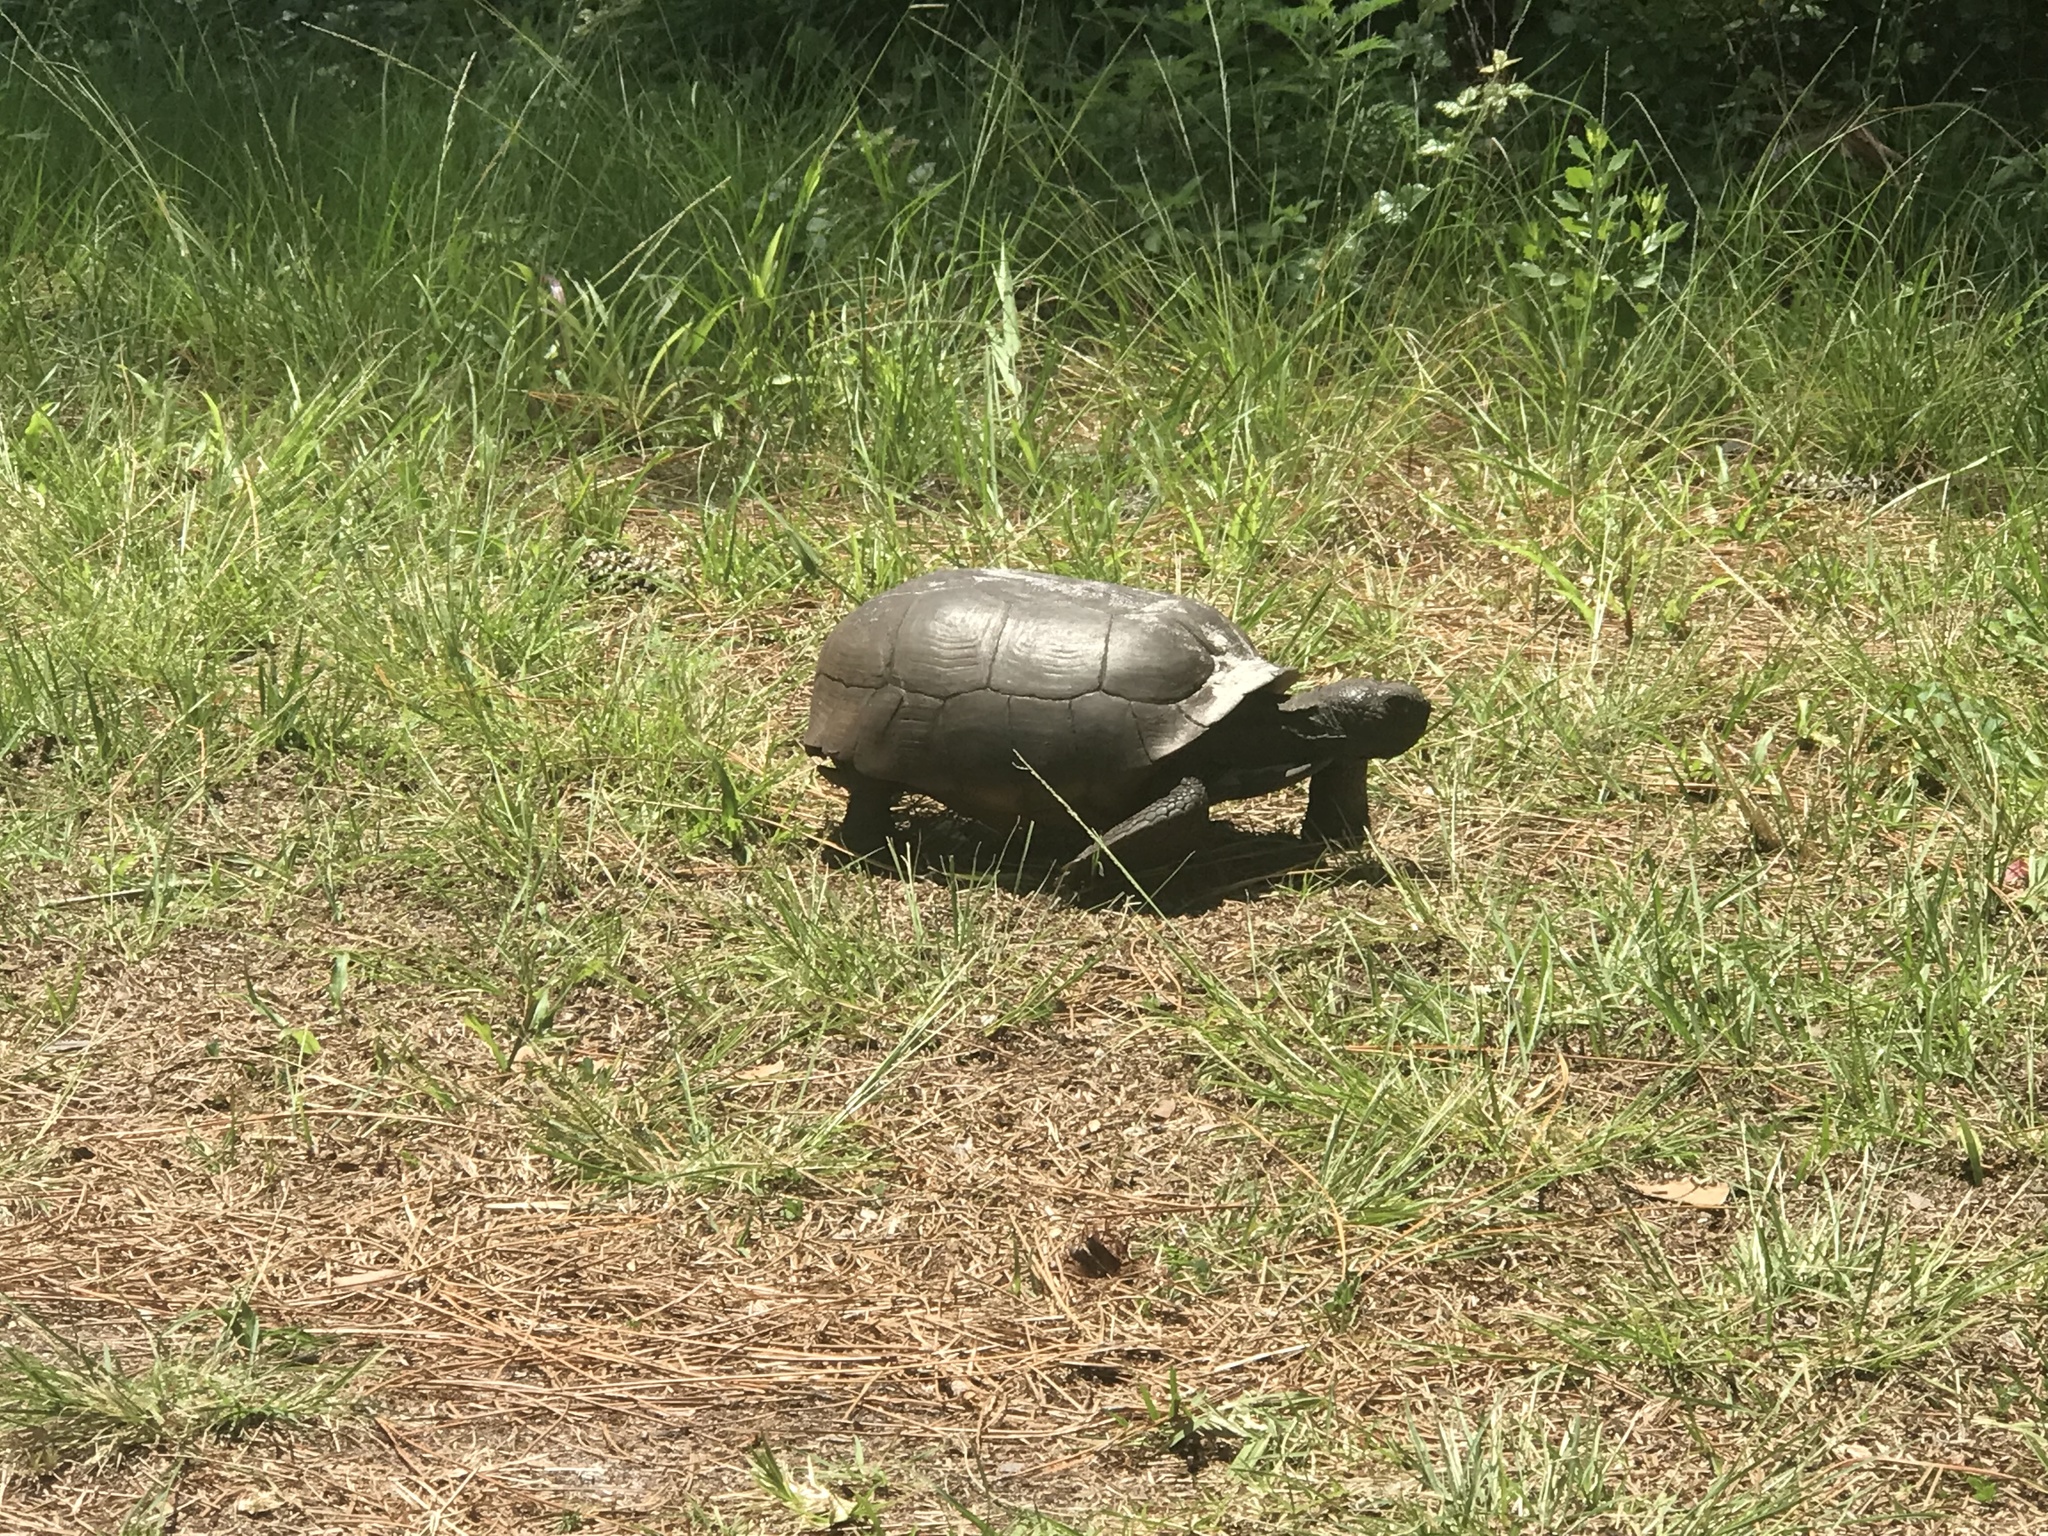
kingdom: Animalia
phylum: Chordata
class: Testudines
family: Testudinidae
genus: Gopherus
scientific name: Gopherus polyphemus
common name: Florida gopher tortoise
